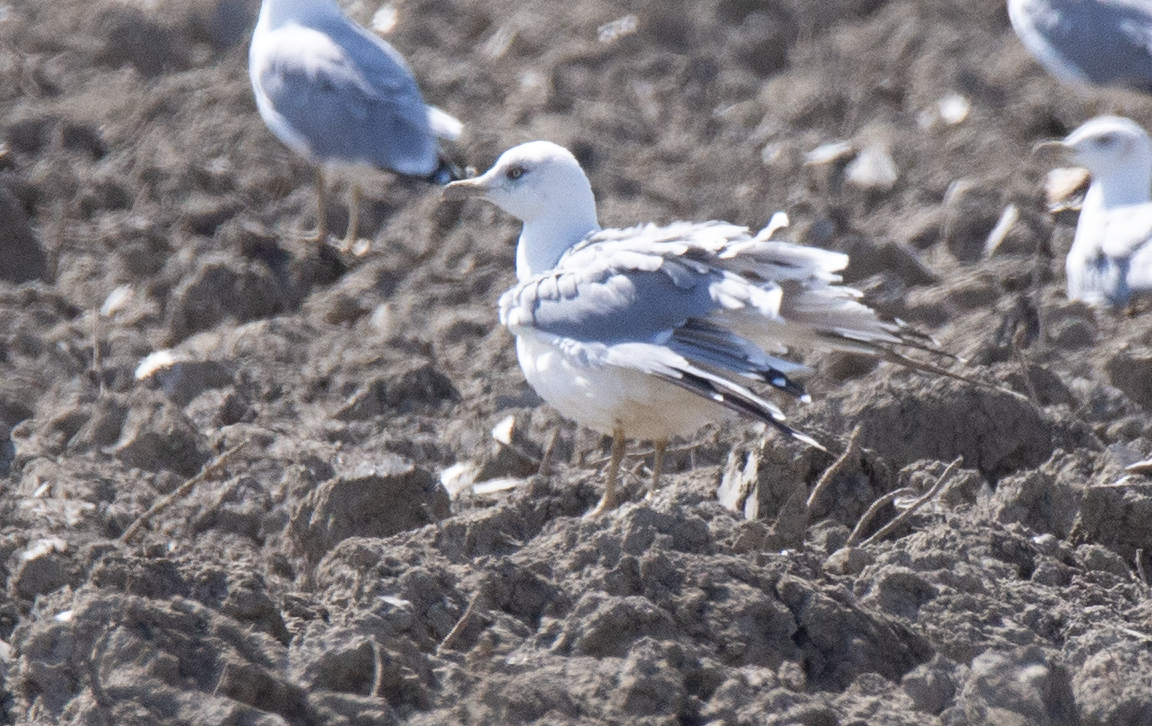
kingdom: Animalia
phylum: Chordata
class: Aves
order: Charadriiformes
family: Laridae
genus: Larus
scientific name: Larus michahellis
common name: Yellow-legged gull
